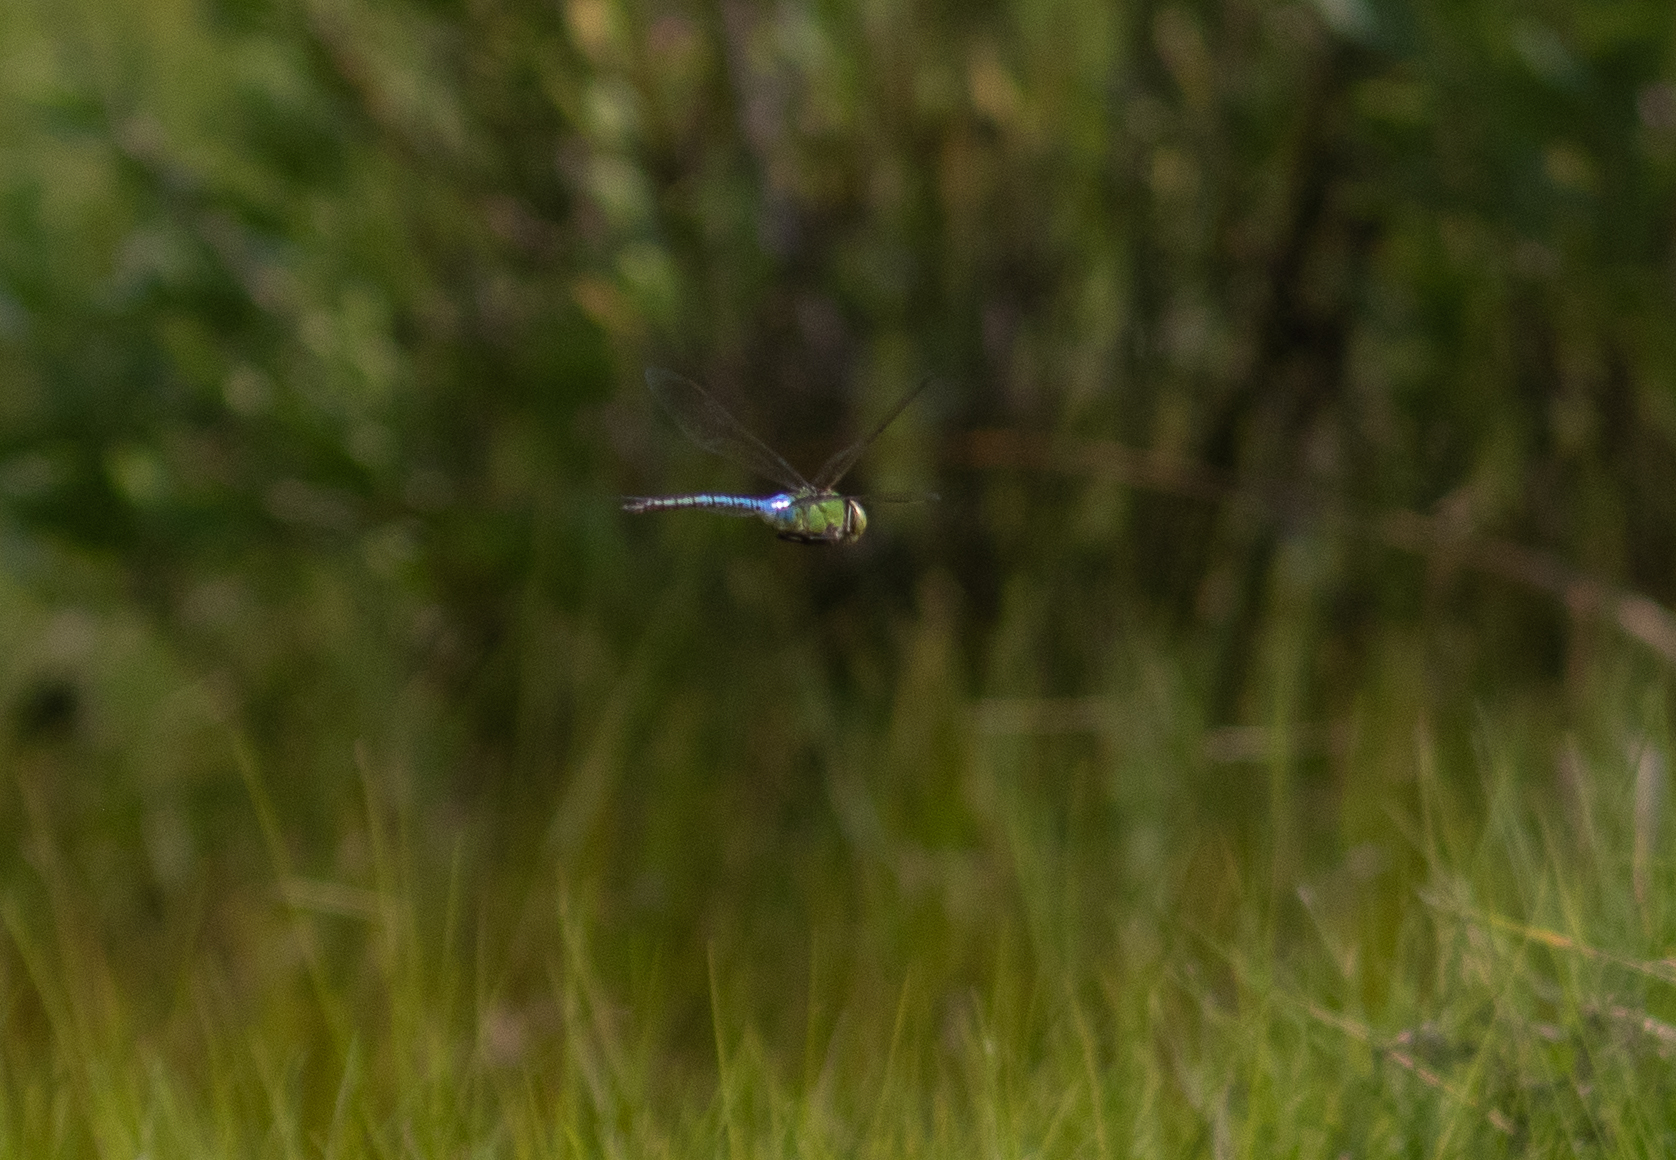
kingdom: Animalia
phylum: Arthropoda
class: Insecta
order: Odonata
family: Aeshnidae
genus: Anax
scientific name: Anax junius
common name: Common green darner
